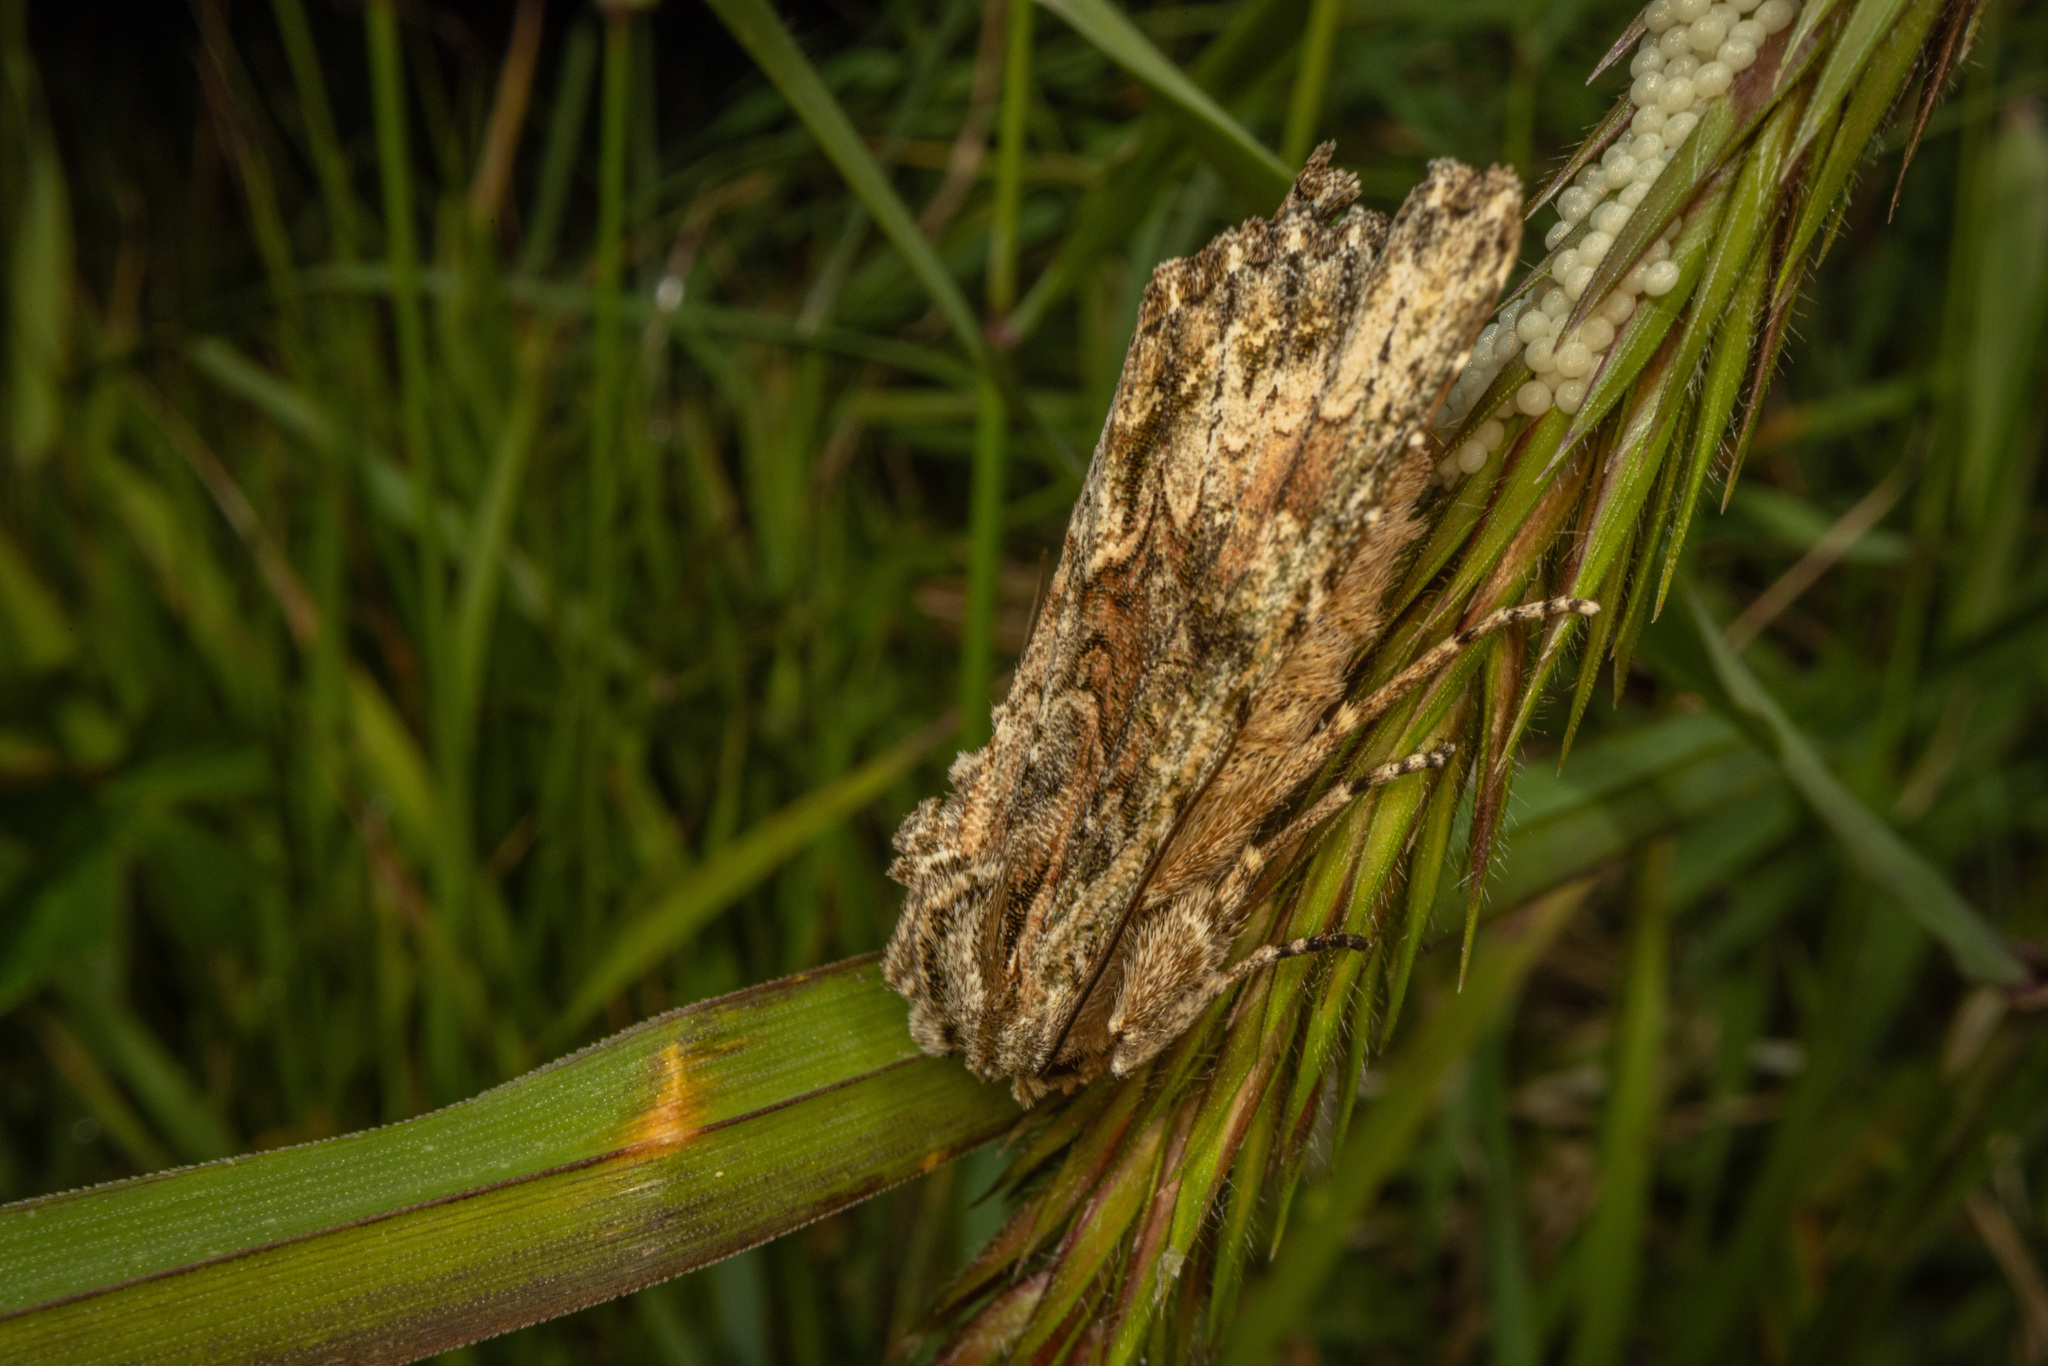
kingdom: Animalia
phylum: Arthropoda
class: Insecta
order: Lepidoptera
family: Noctuidae
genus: Ichneutica
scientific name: Ichneutica mutans
